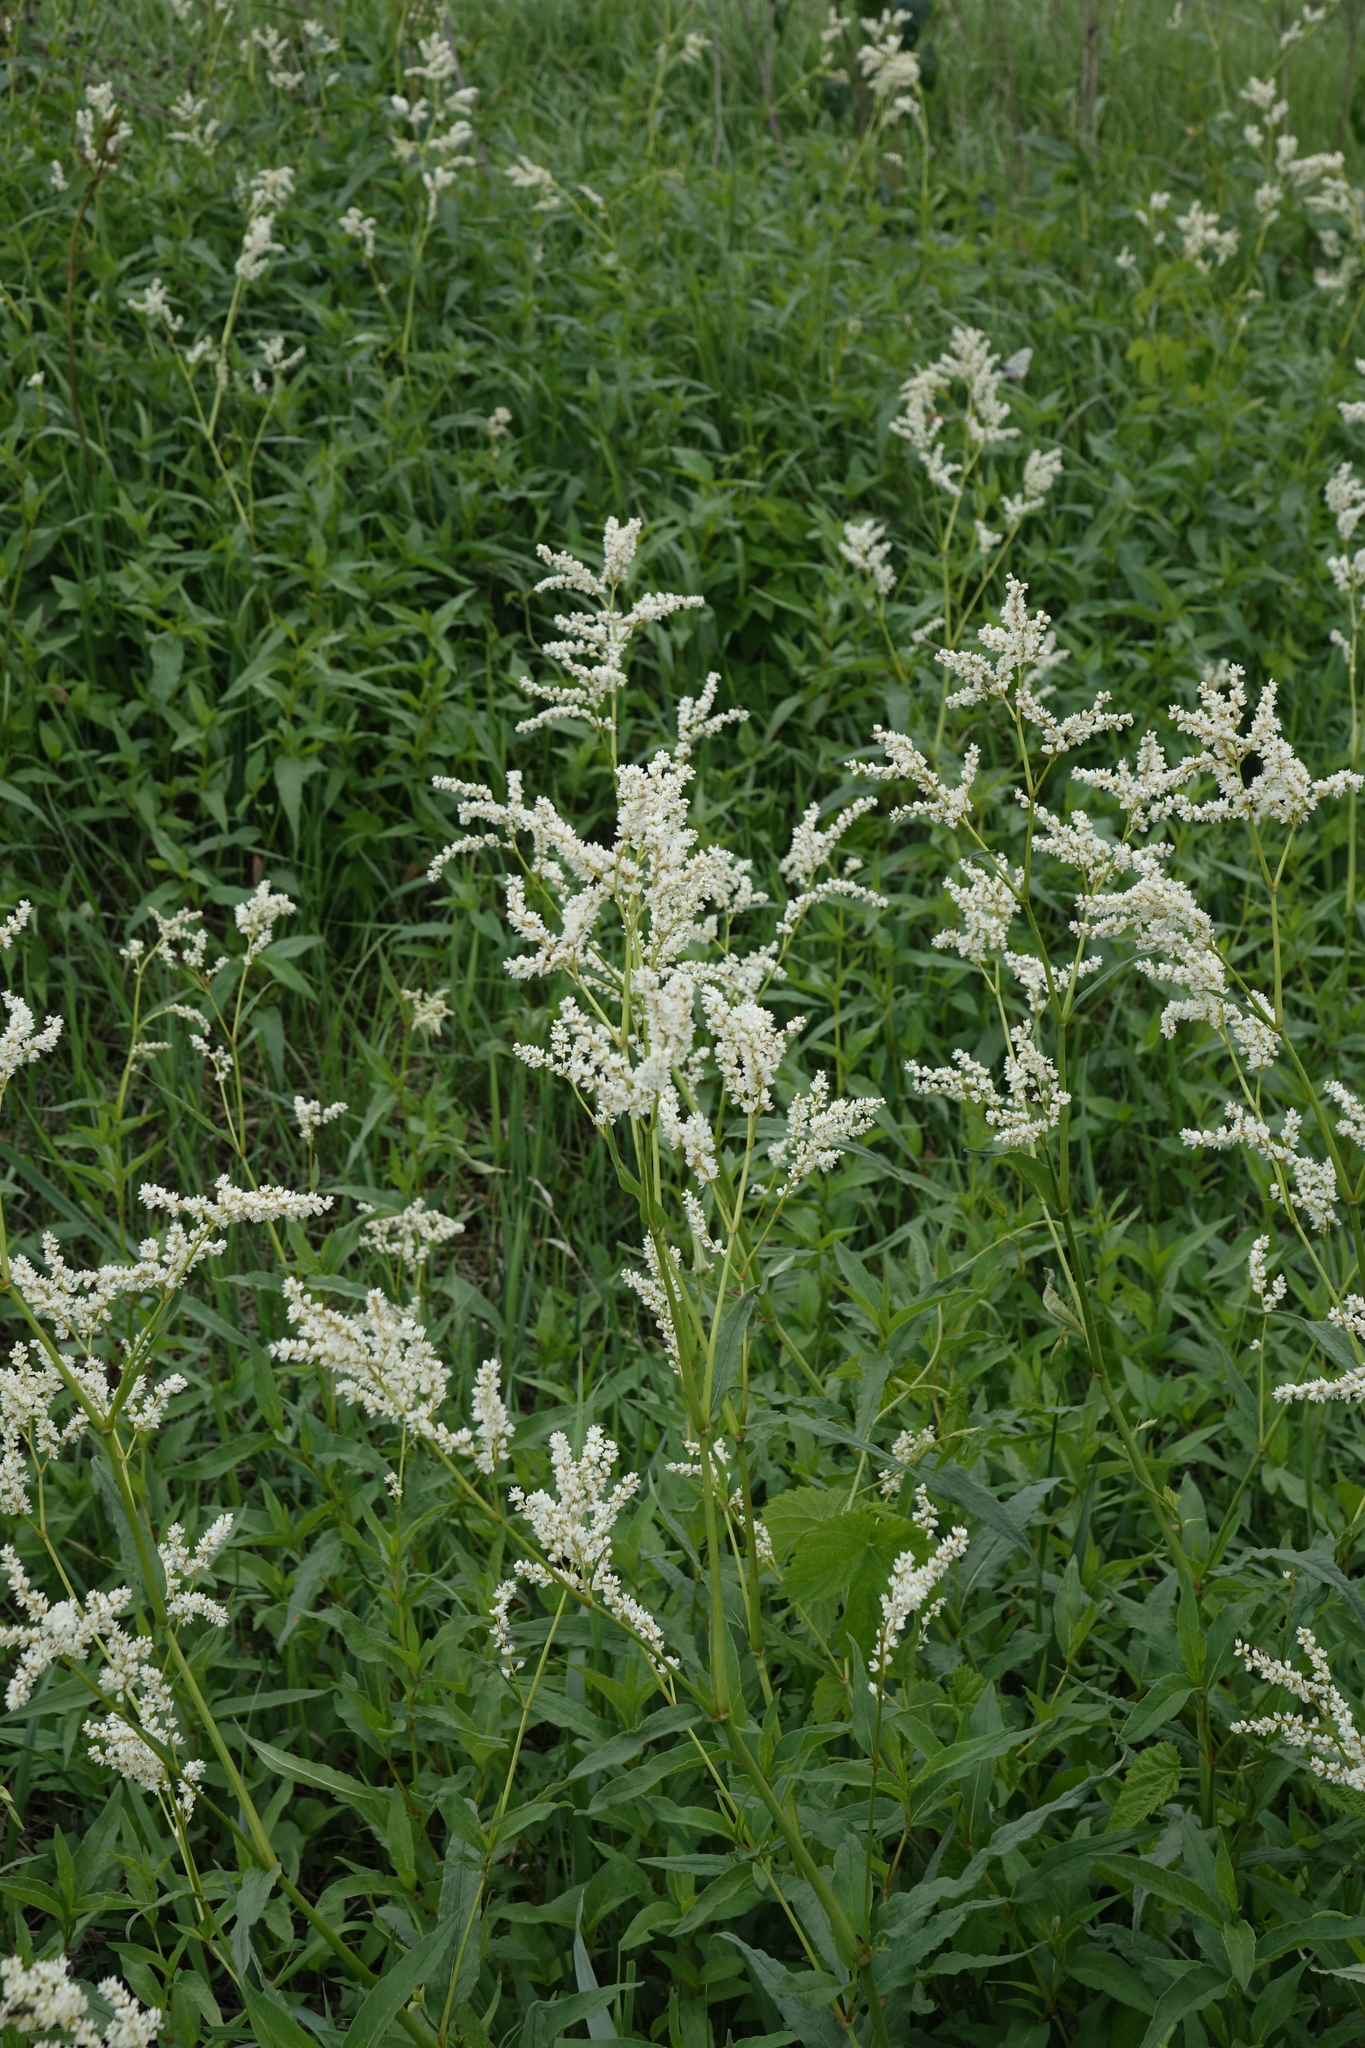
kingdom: Plantae
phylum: Tracheophyta
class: Magnoliopsida
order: Caryophyllales
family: Polygonaceae
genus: Koenigia
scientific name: Koenigia alpina
